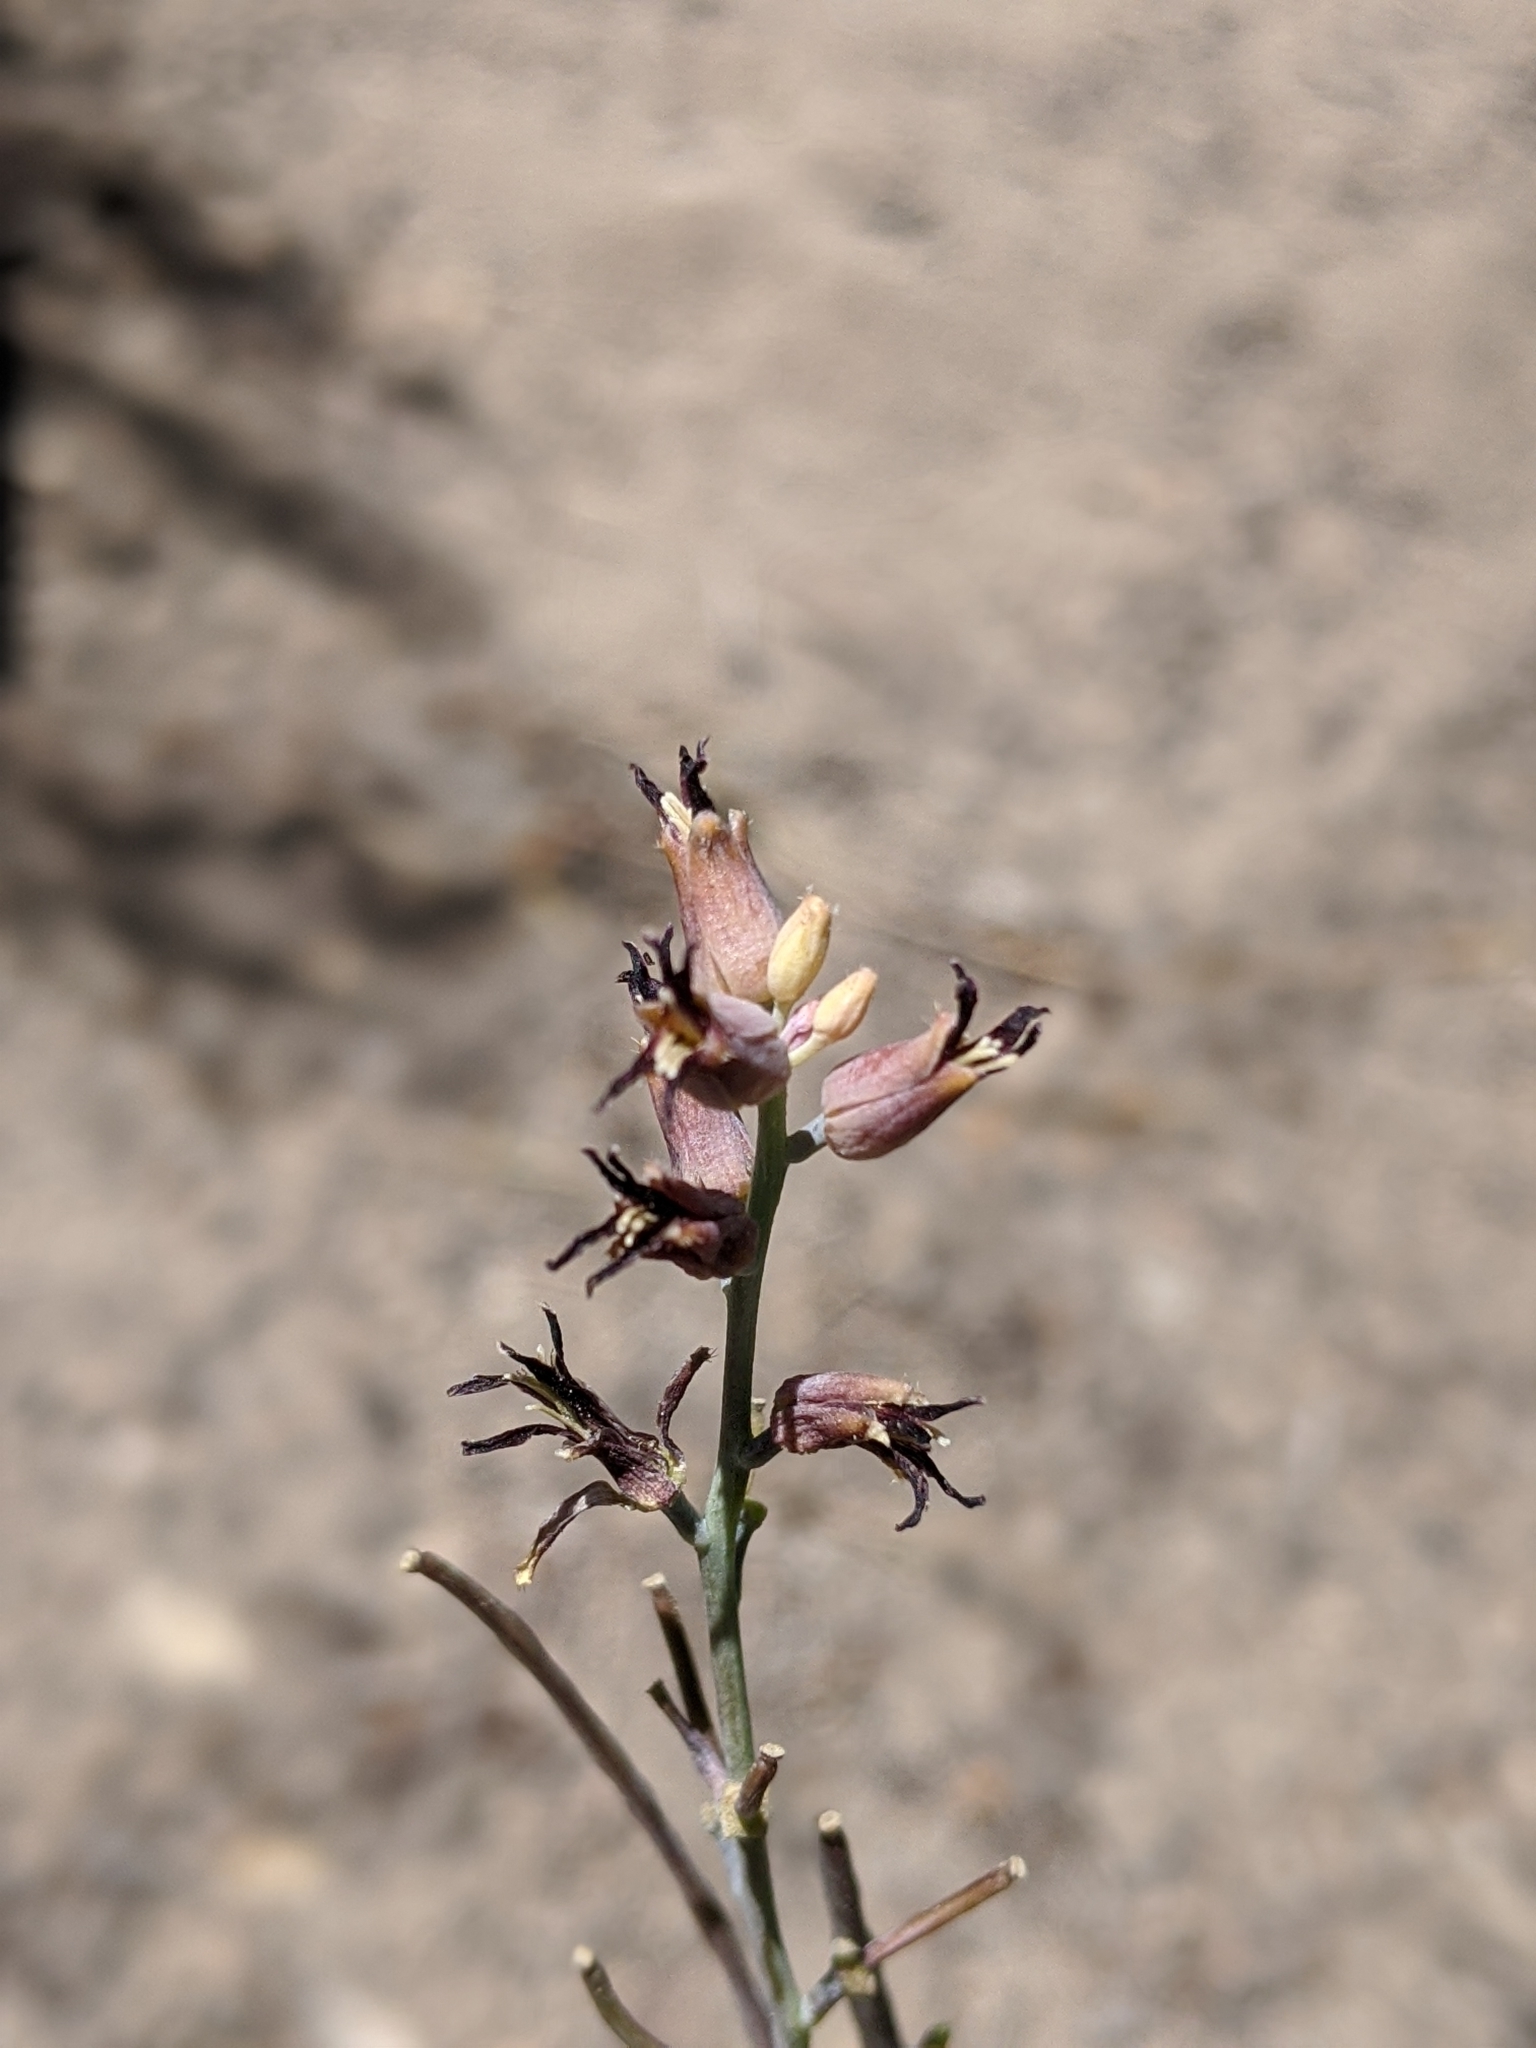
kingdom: Plantae
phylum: Tracheophyta
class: Magnoliopsida
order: Brassicales
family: Brassicaceae
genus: Streptanthus
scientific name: Streptanthus cordatus
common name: Heart-leaf jewel-flower
